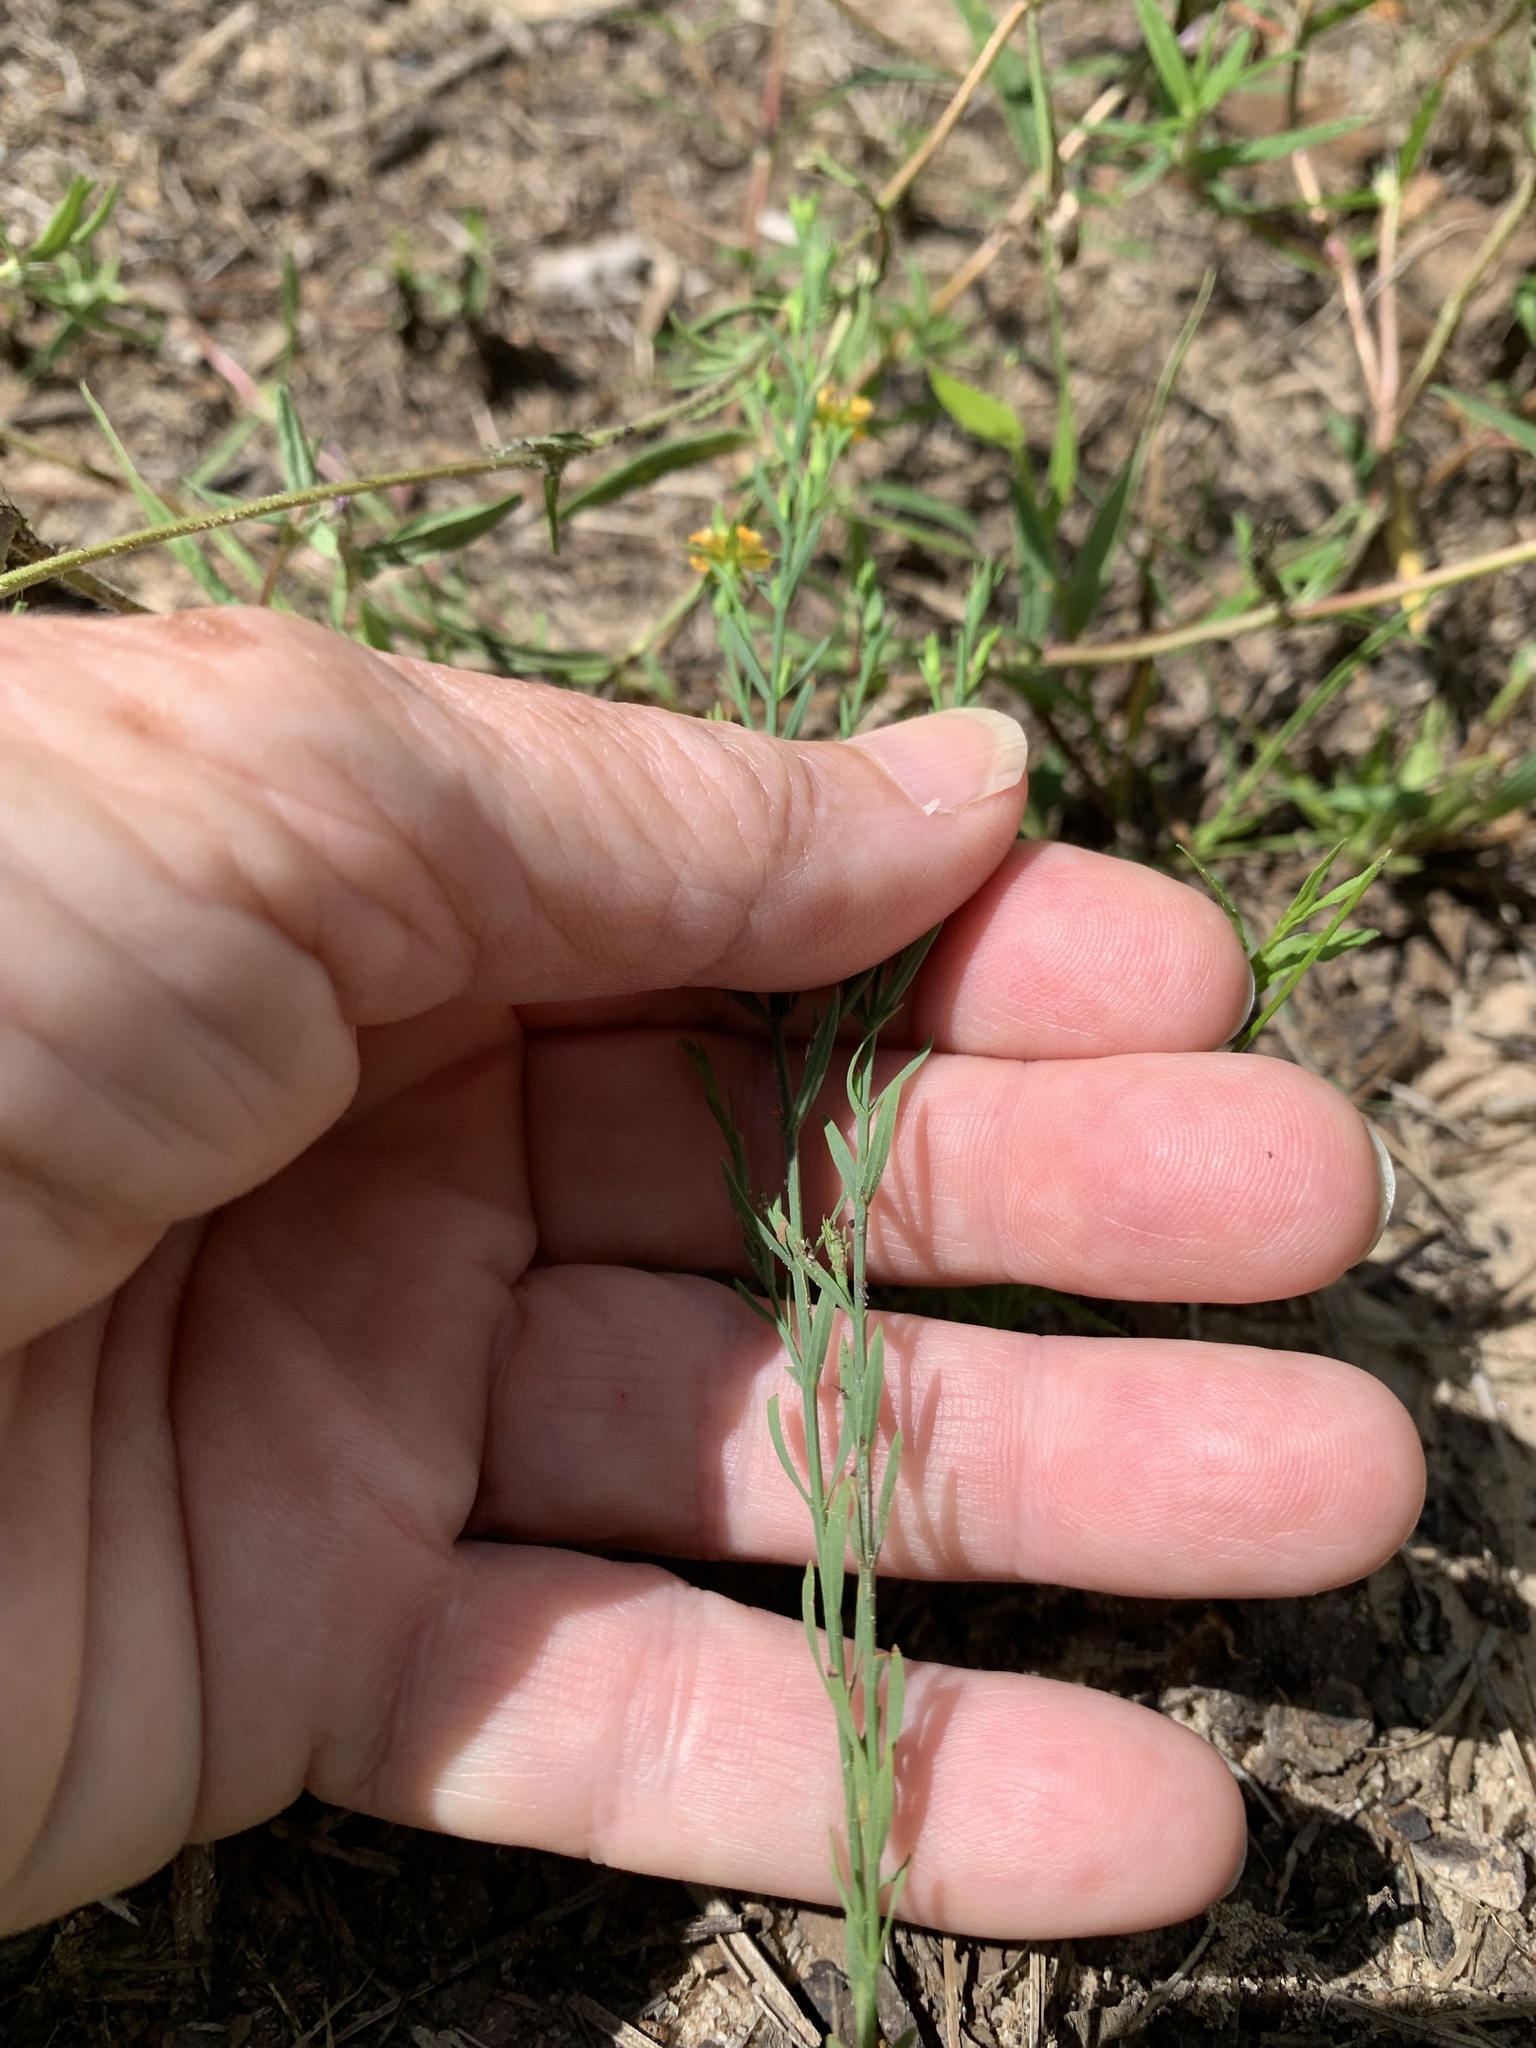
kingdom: Plantae
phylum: Tracheophyta
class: Magnoliopsida
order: Malpighiales
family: Hypericaceae
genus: Hypericum
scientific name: Hypericum drummondii
